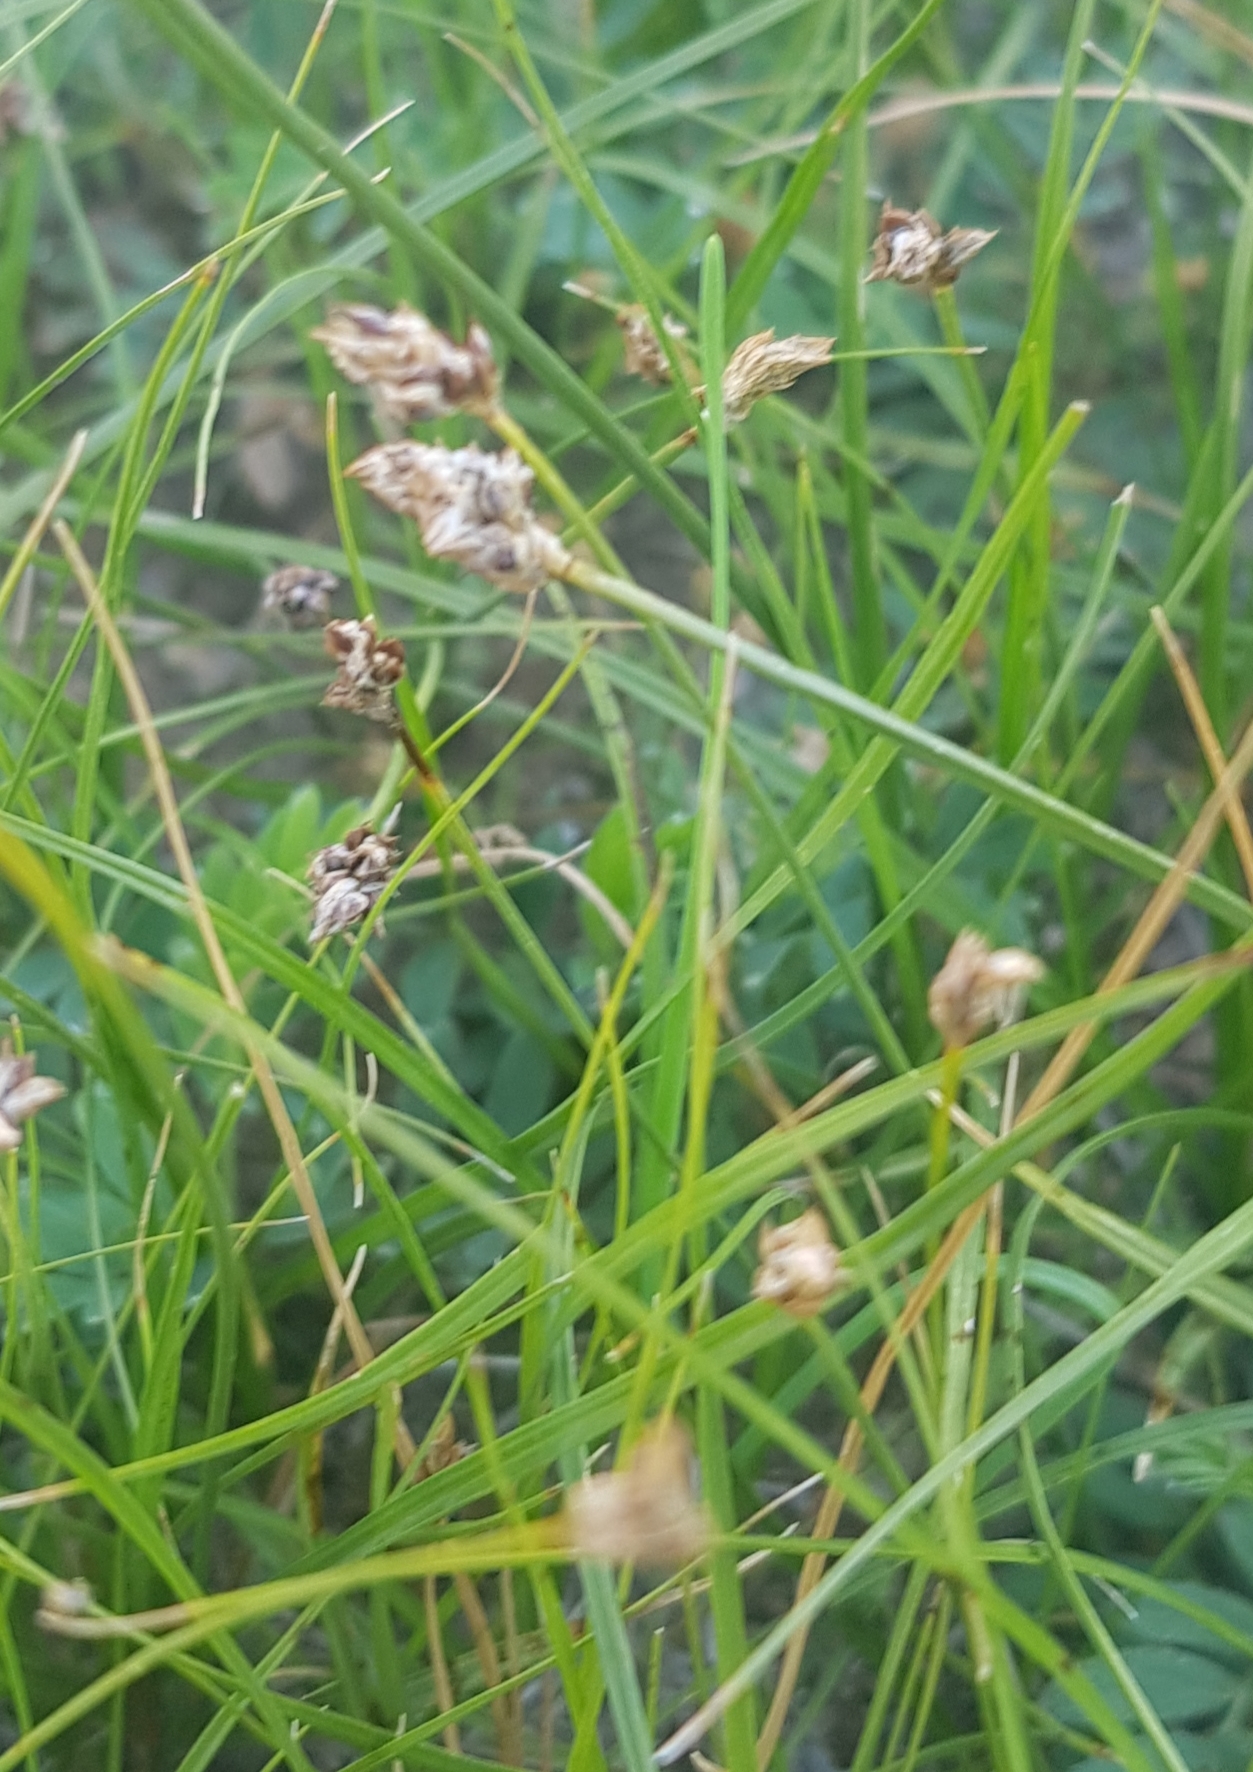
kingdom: Plantae
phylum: Tracheophyta
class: Liliopsida
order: Poales
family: Cyperaceae
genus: Carex
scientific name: Carex duriuscula
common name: Involute-leaved sedge
